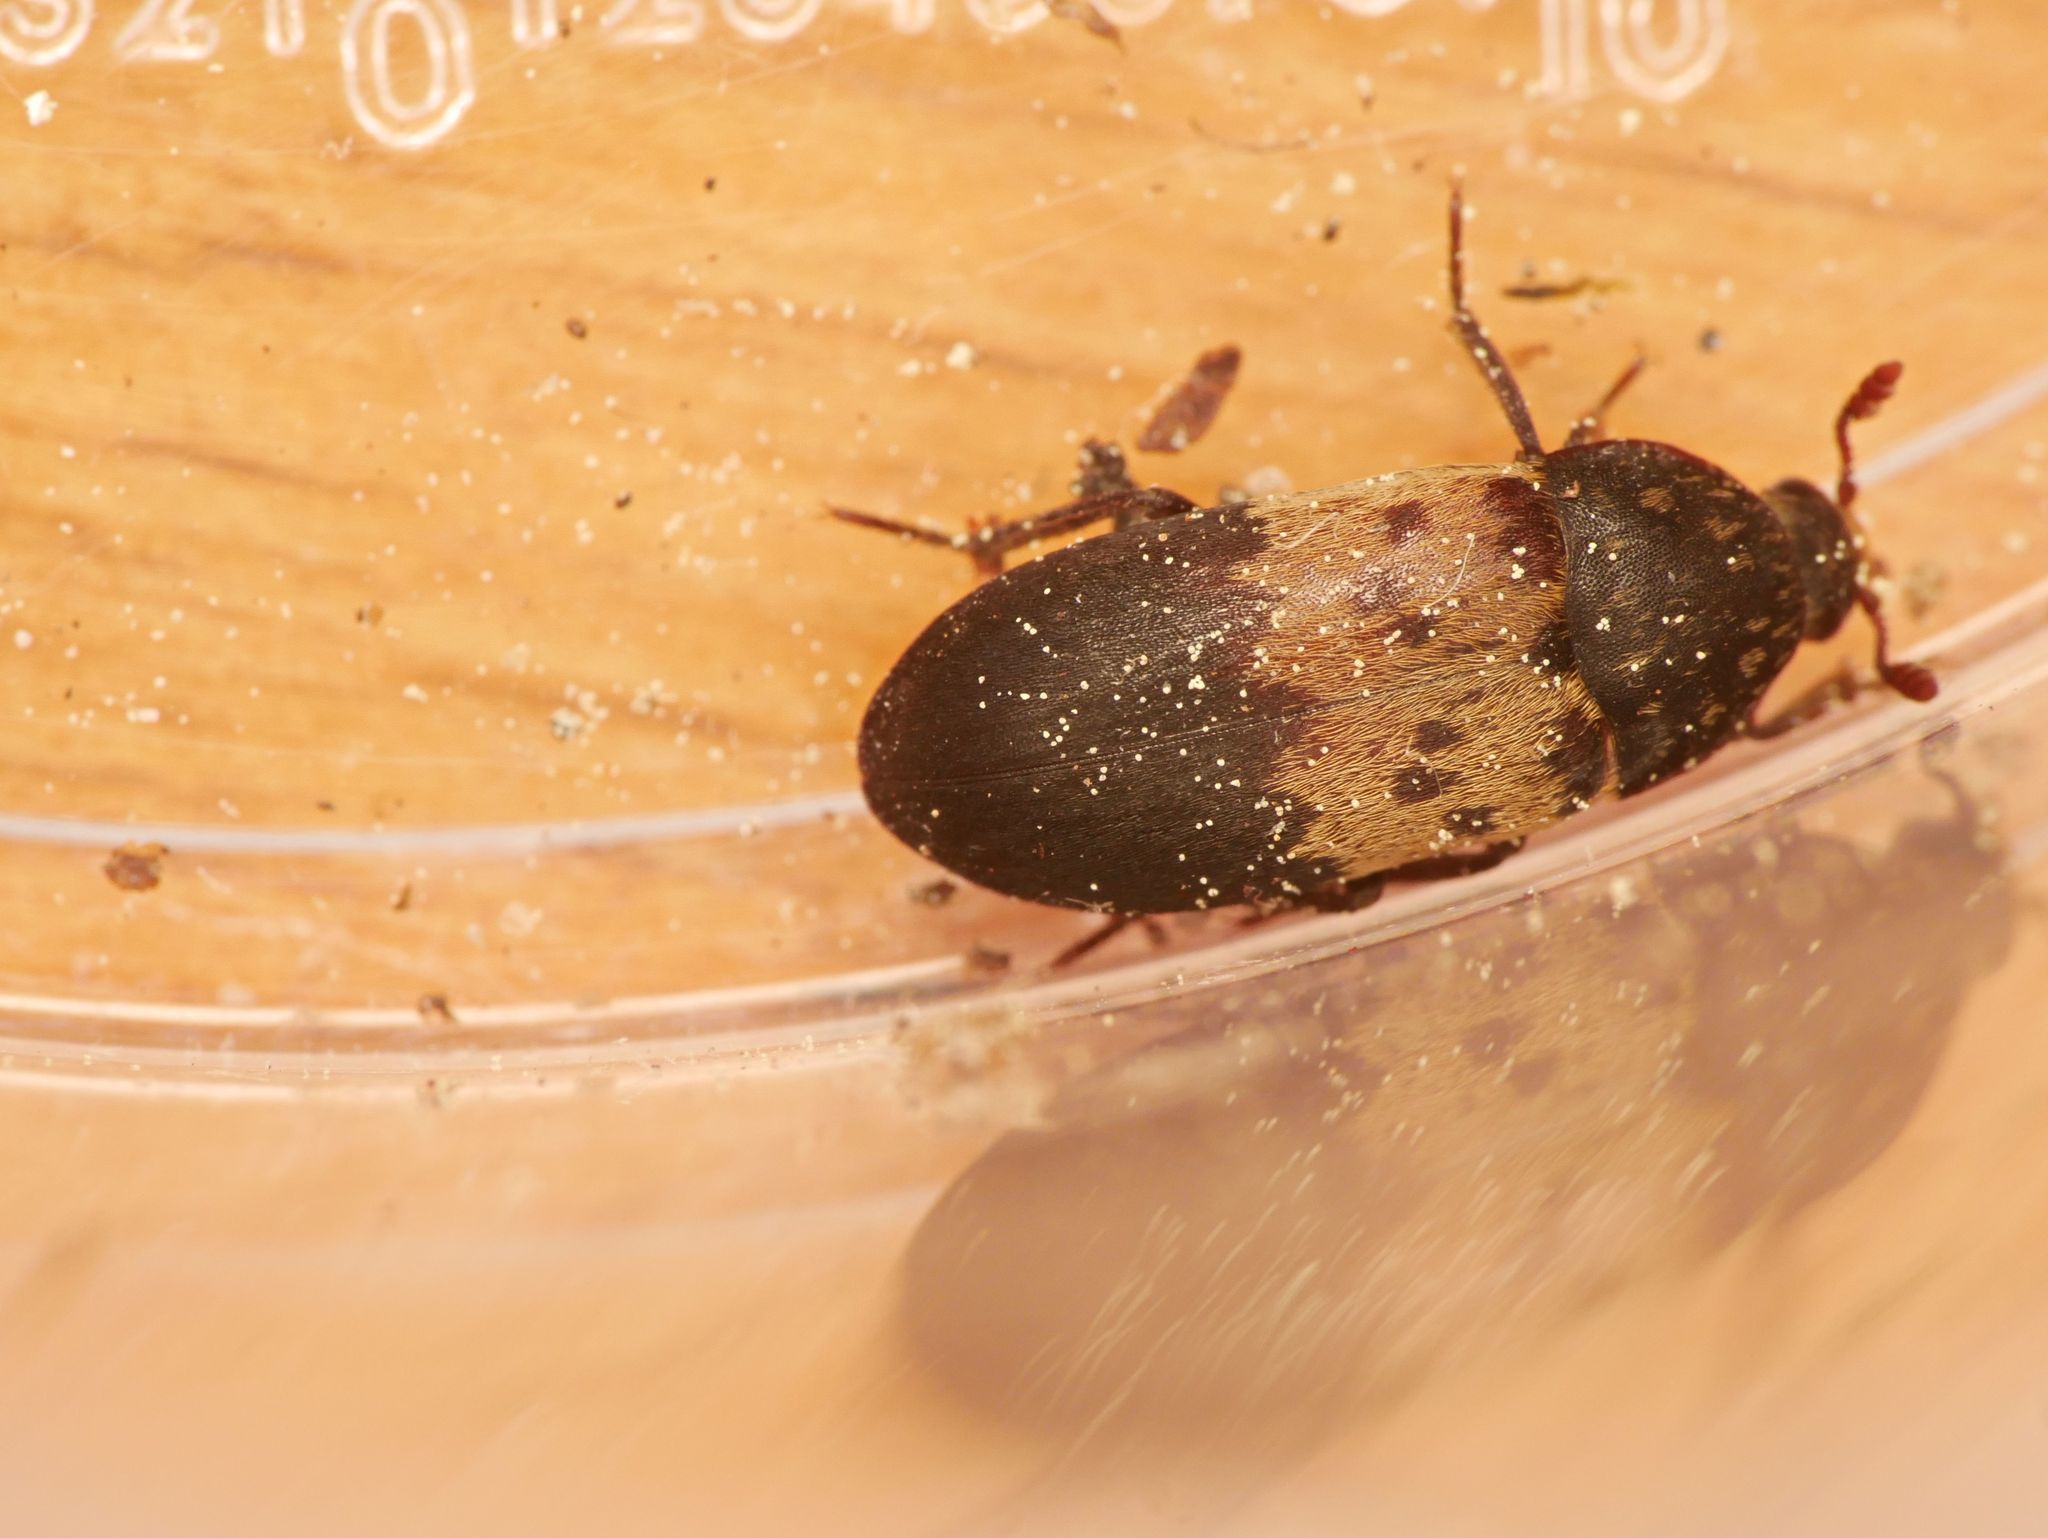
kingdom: Animalia
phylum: Arthropoda
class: Insecta
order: Coleoptera
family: Dermestidae
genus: Dermestes
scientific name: Dermestes lardarius
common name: Larder beetle
